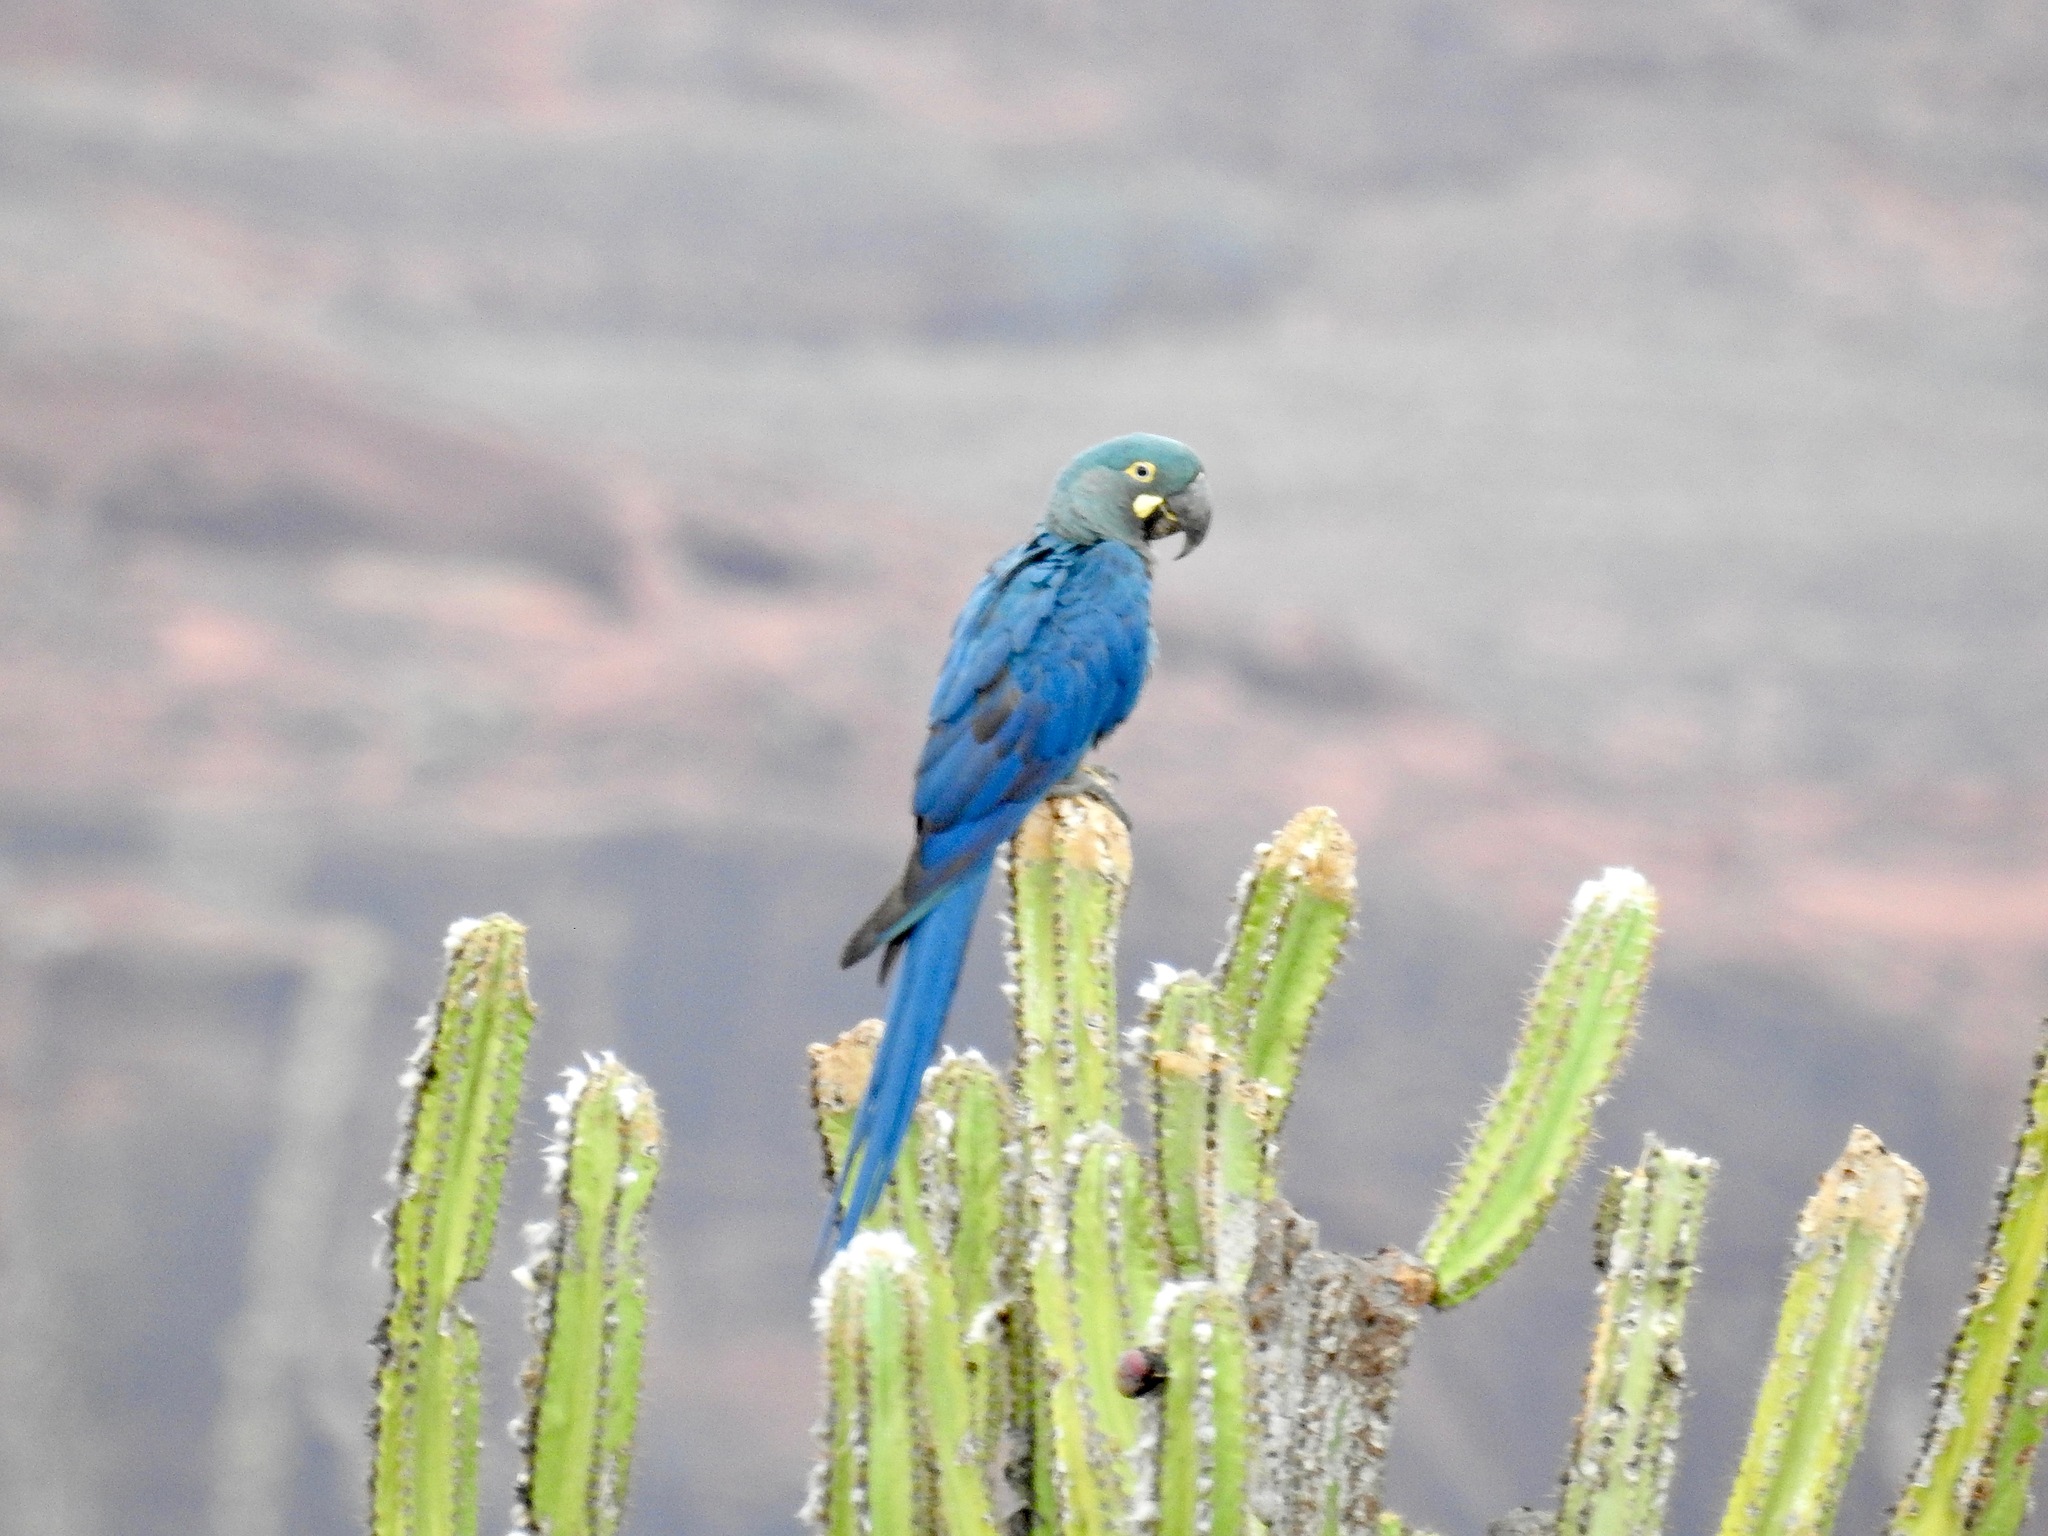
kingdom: Animalia
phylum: Chordata
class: Aves
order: Psittaciformes
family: Psittacidae
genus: Anodorhynchus
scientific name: Anodorhynchus leari
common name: Lear's macaw
